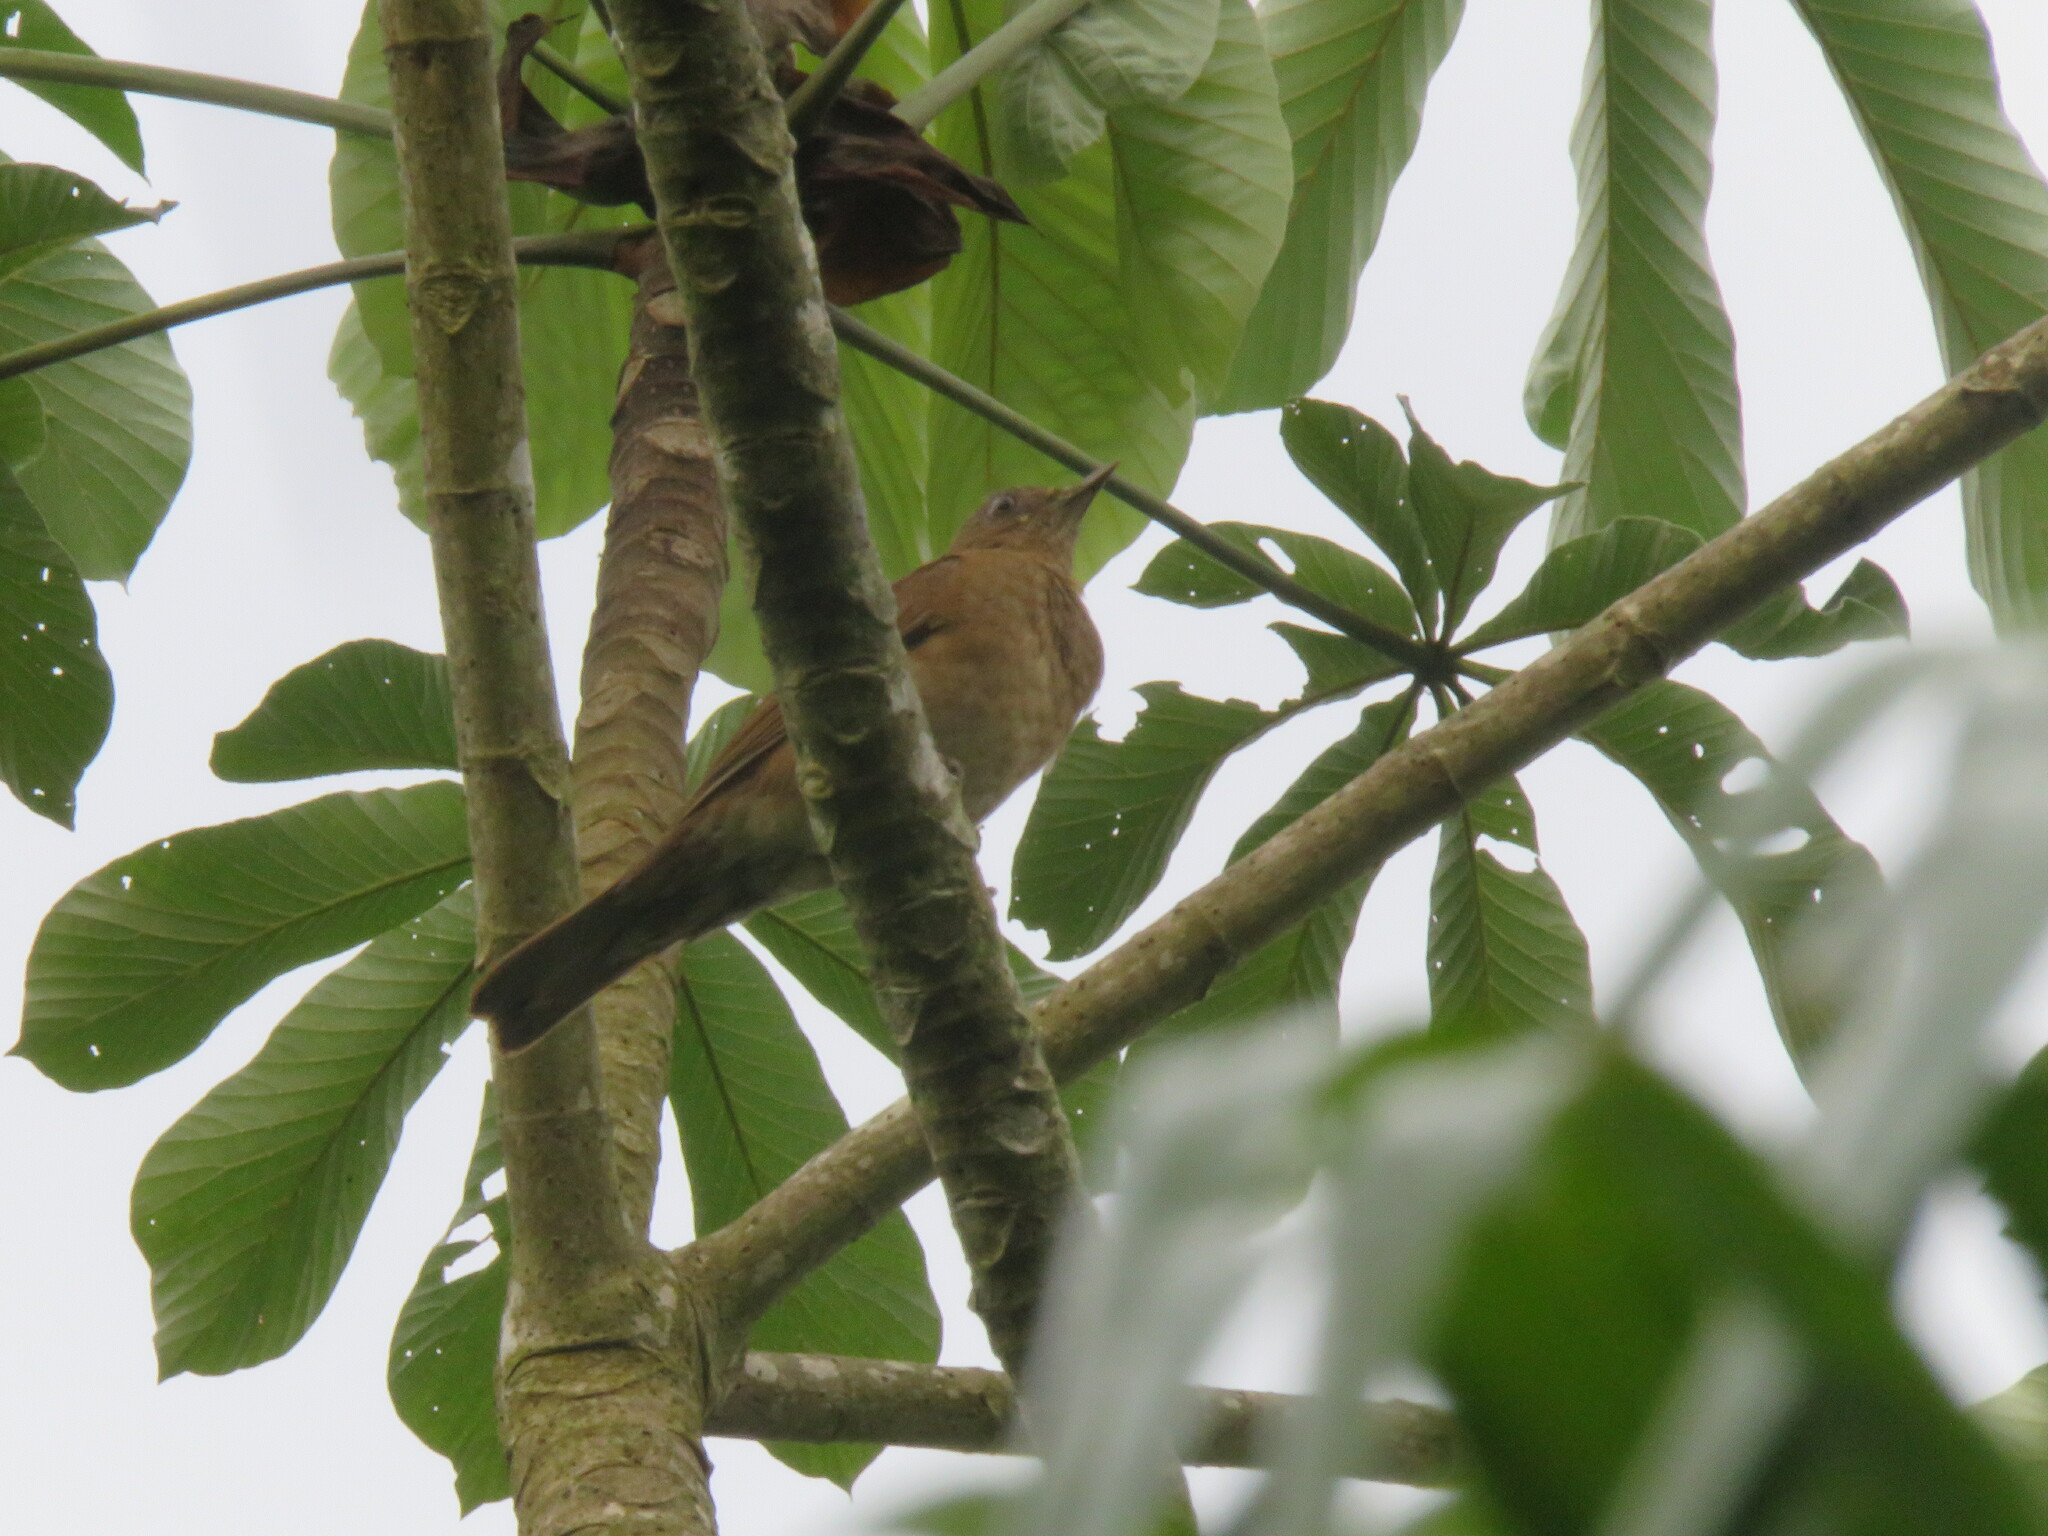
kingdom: Animalia
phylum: Chordata
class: Aves
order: Passeriformes
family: Turdidae
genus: Turdus
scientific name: Turdus hauxwelli
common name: Hauxwell's thrush
